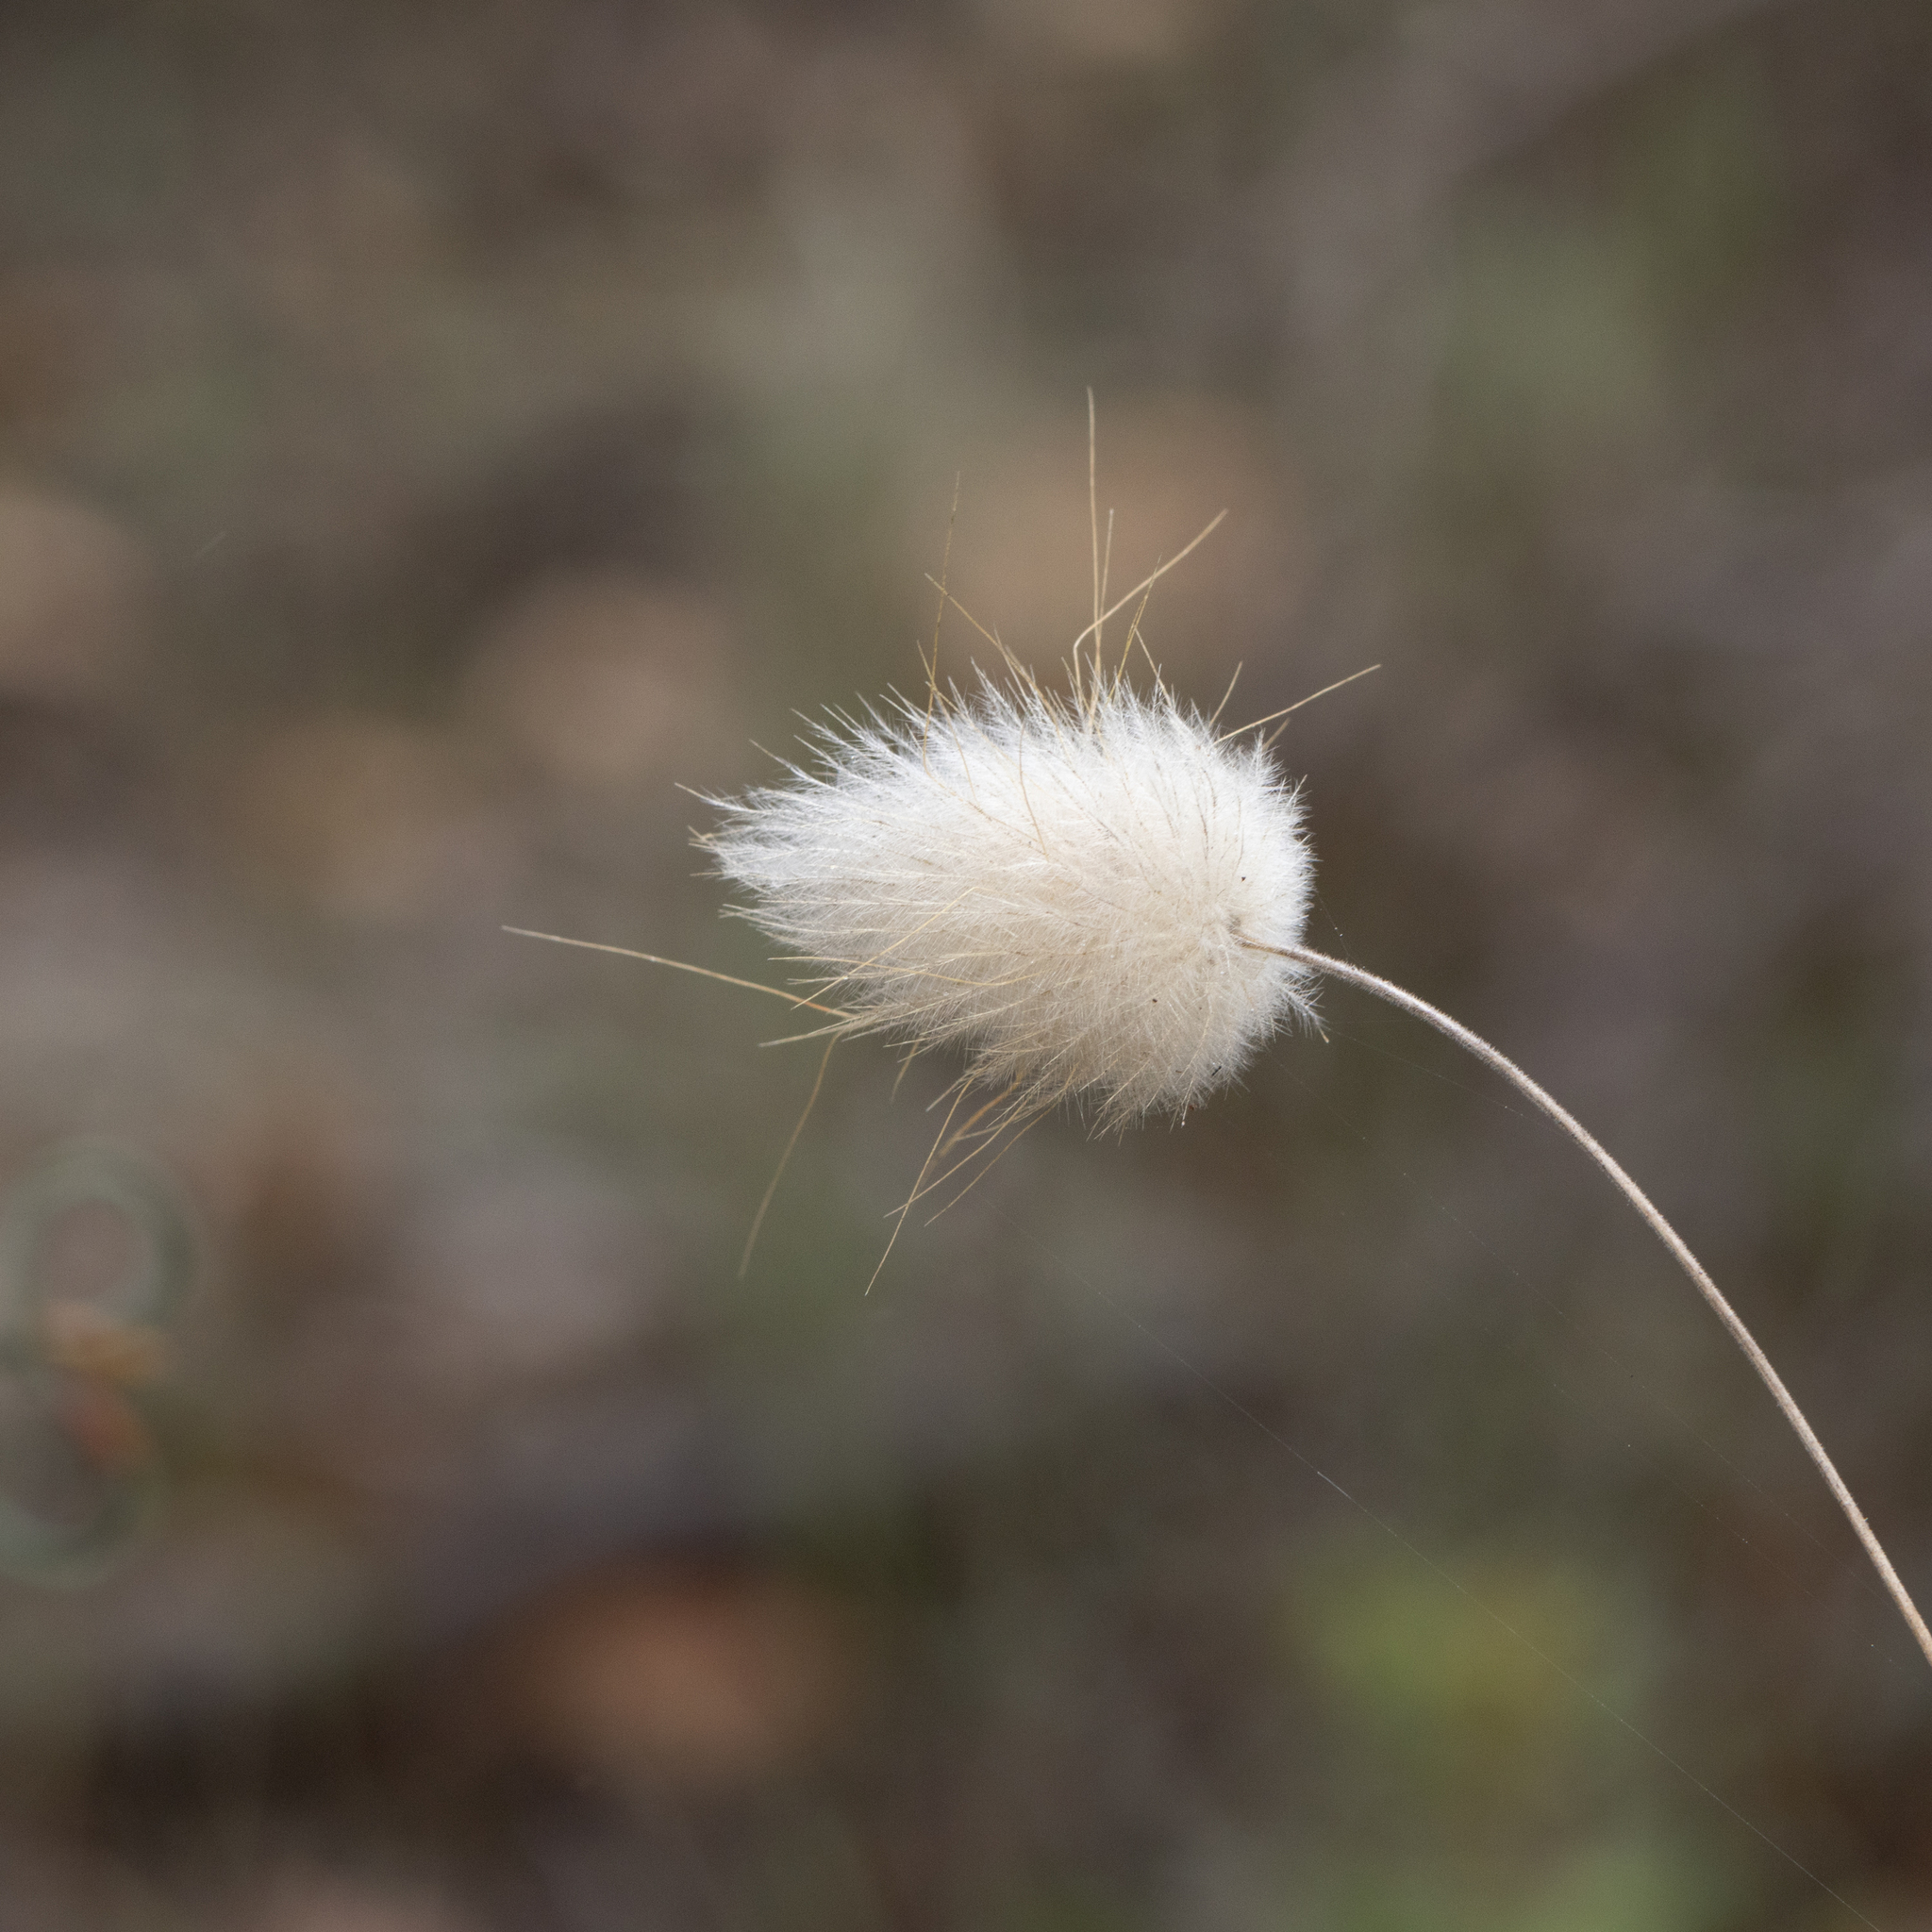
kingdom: Plantae
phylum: Tracheophyta
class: Liliopsida
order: Poales
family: Poaceae
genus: Lagurus
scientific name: Lagurus ovatus
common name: Hare's-tail
